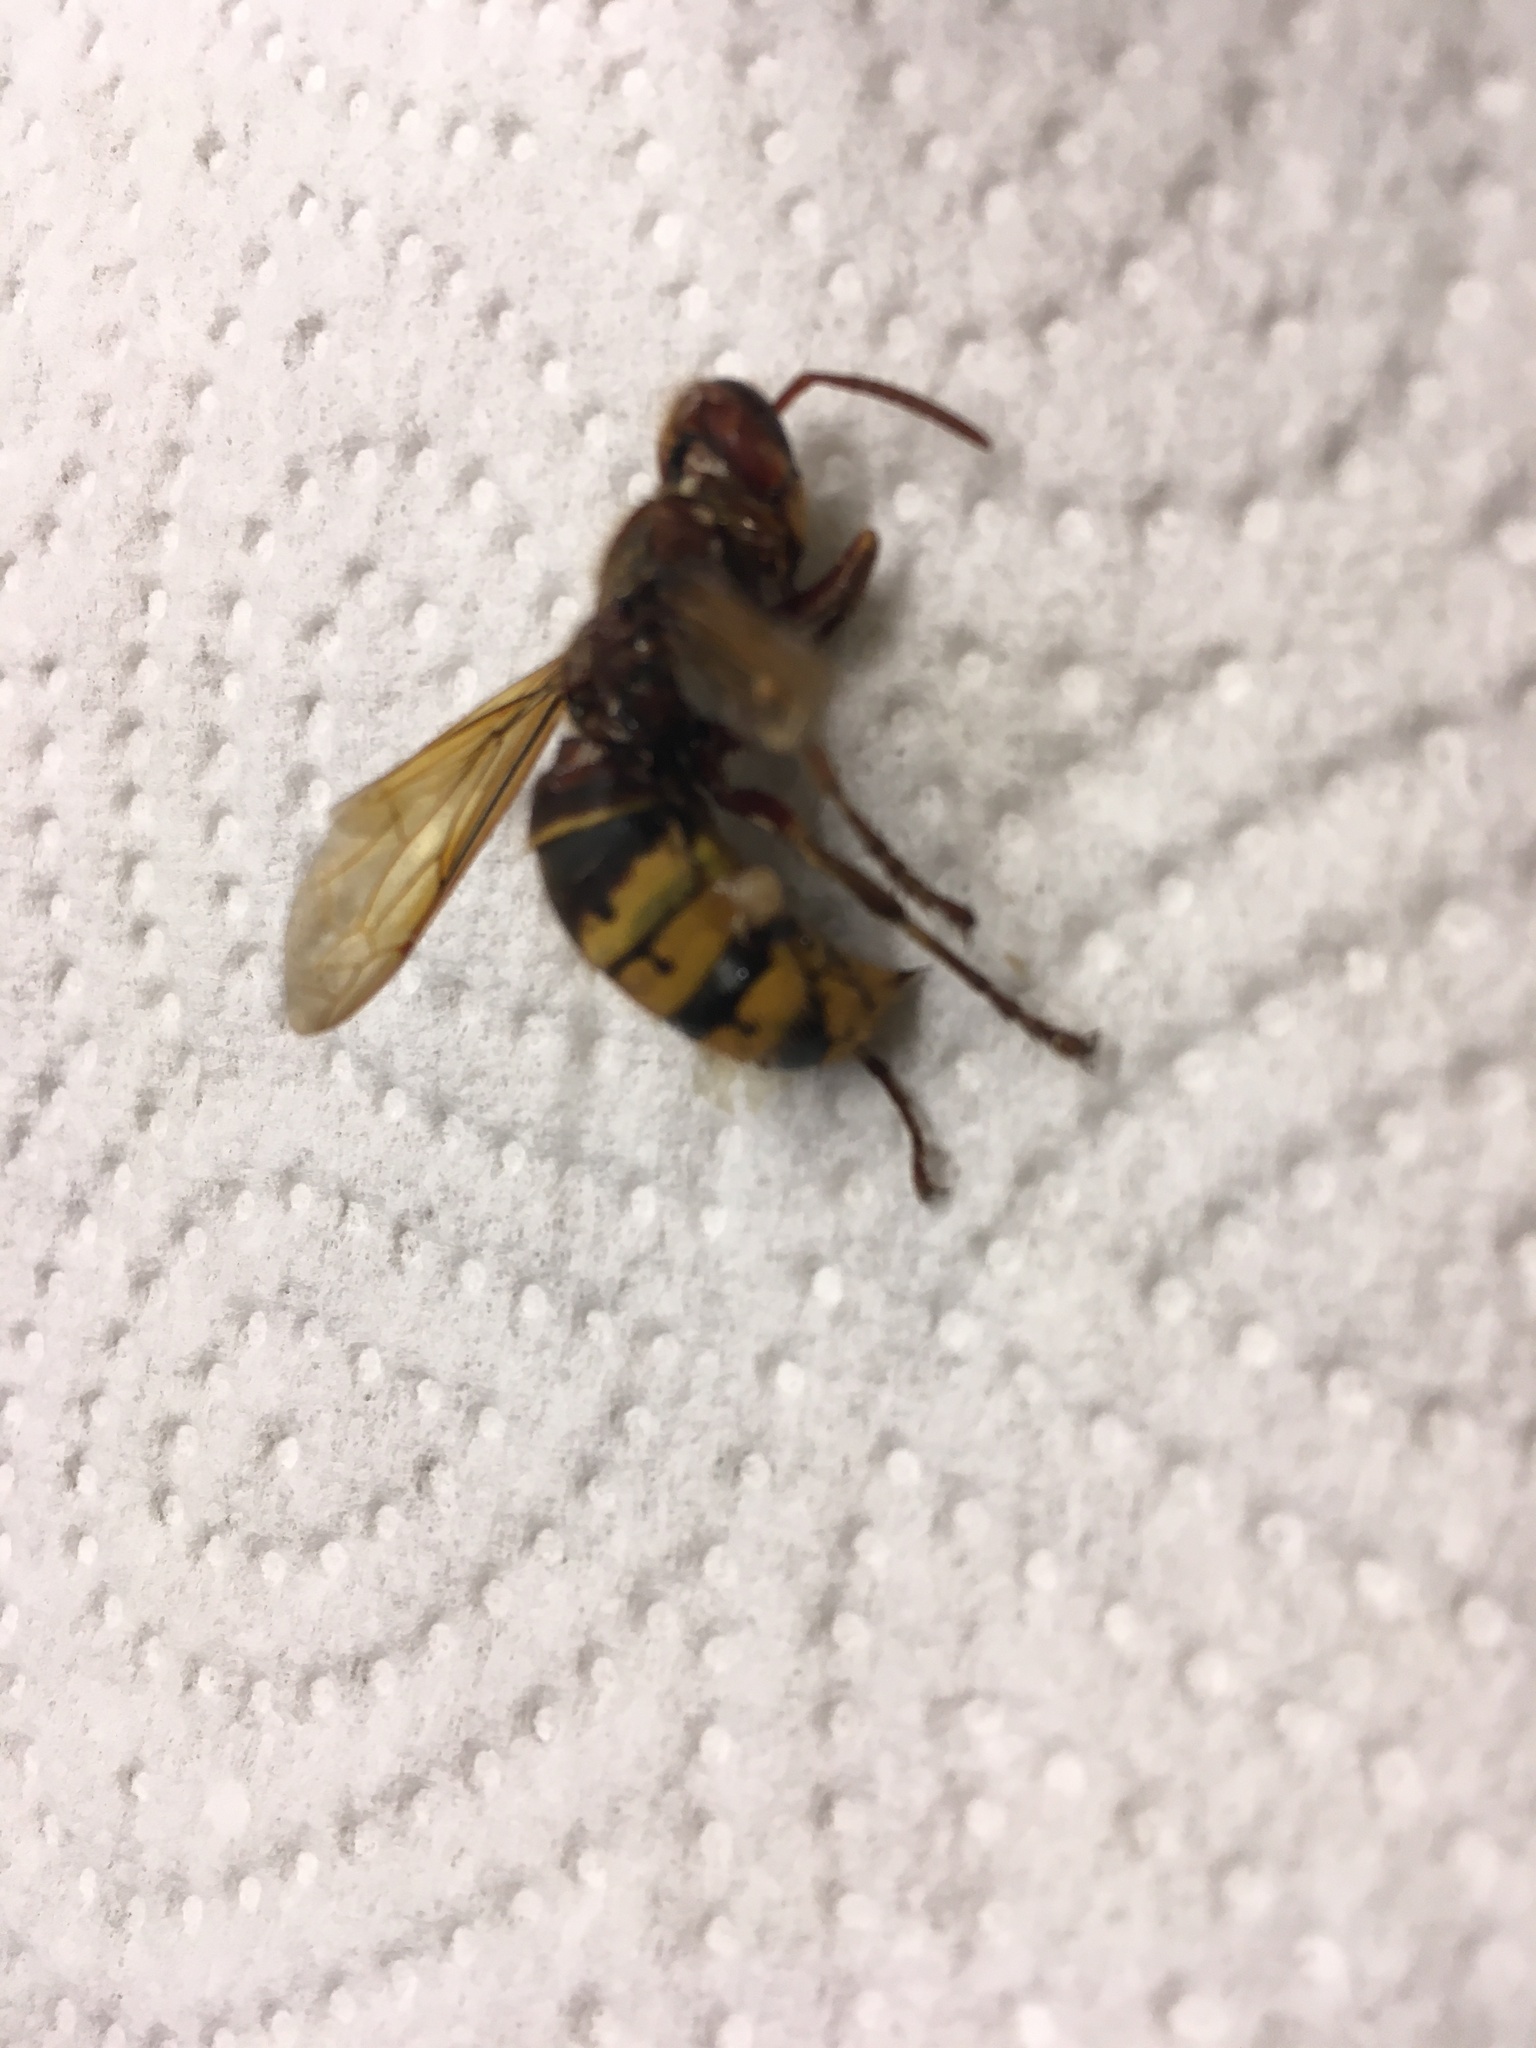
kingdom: Animalia
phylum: Arthropoda
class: Insecta
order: Hymenoptera
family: Vespidae
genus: Vespa
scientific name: Vespa crabro
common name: Hornet
